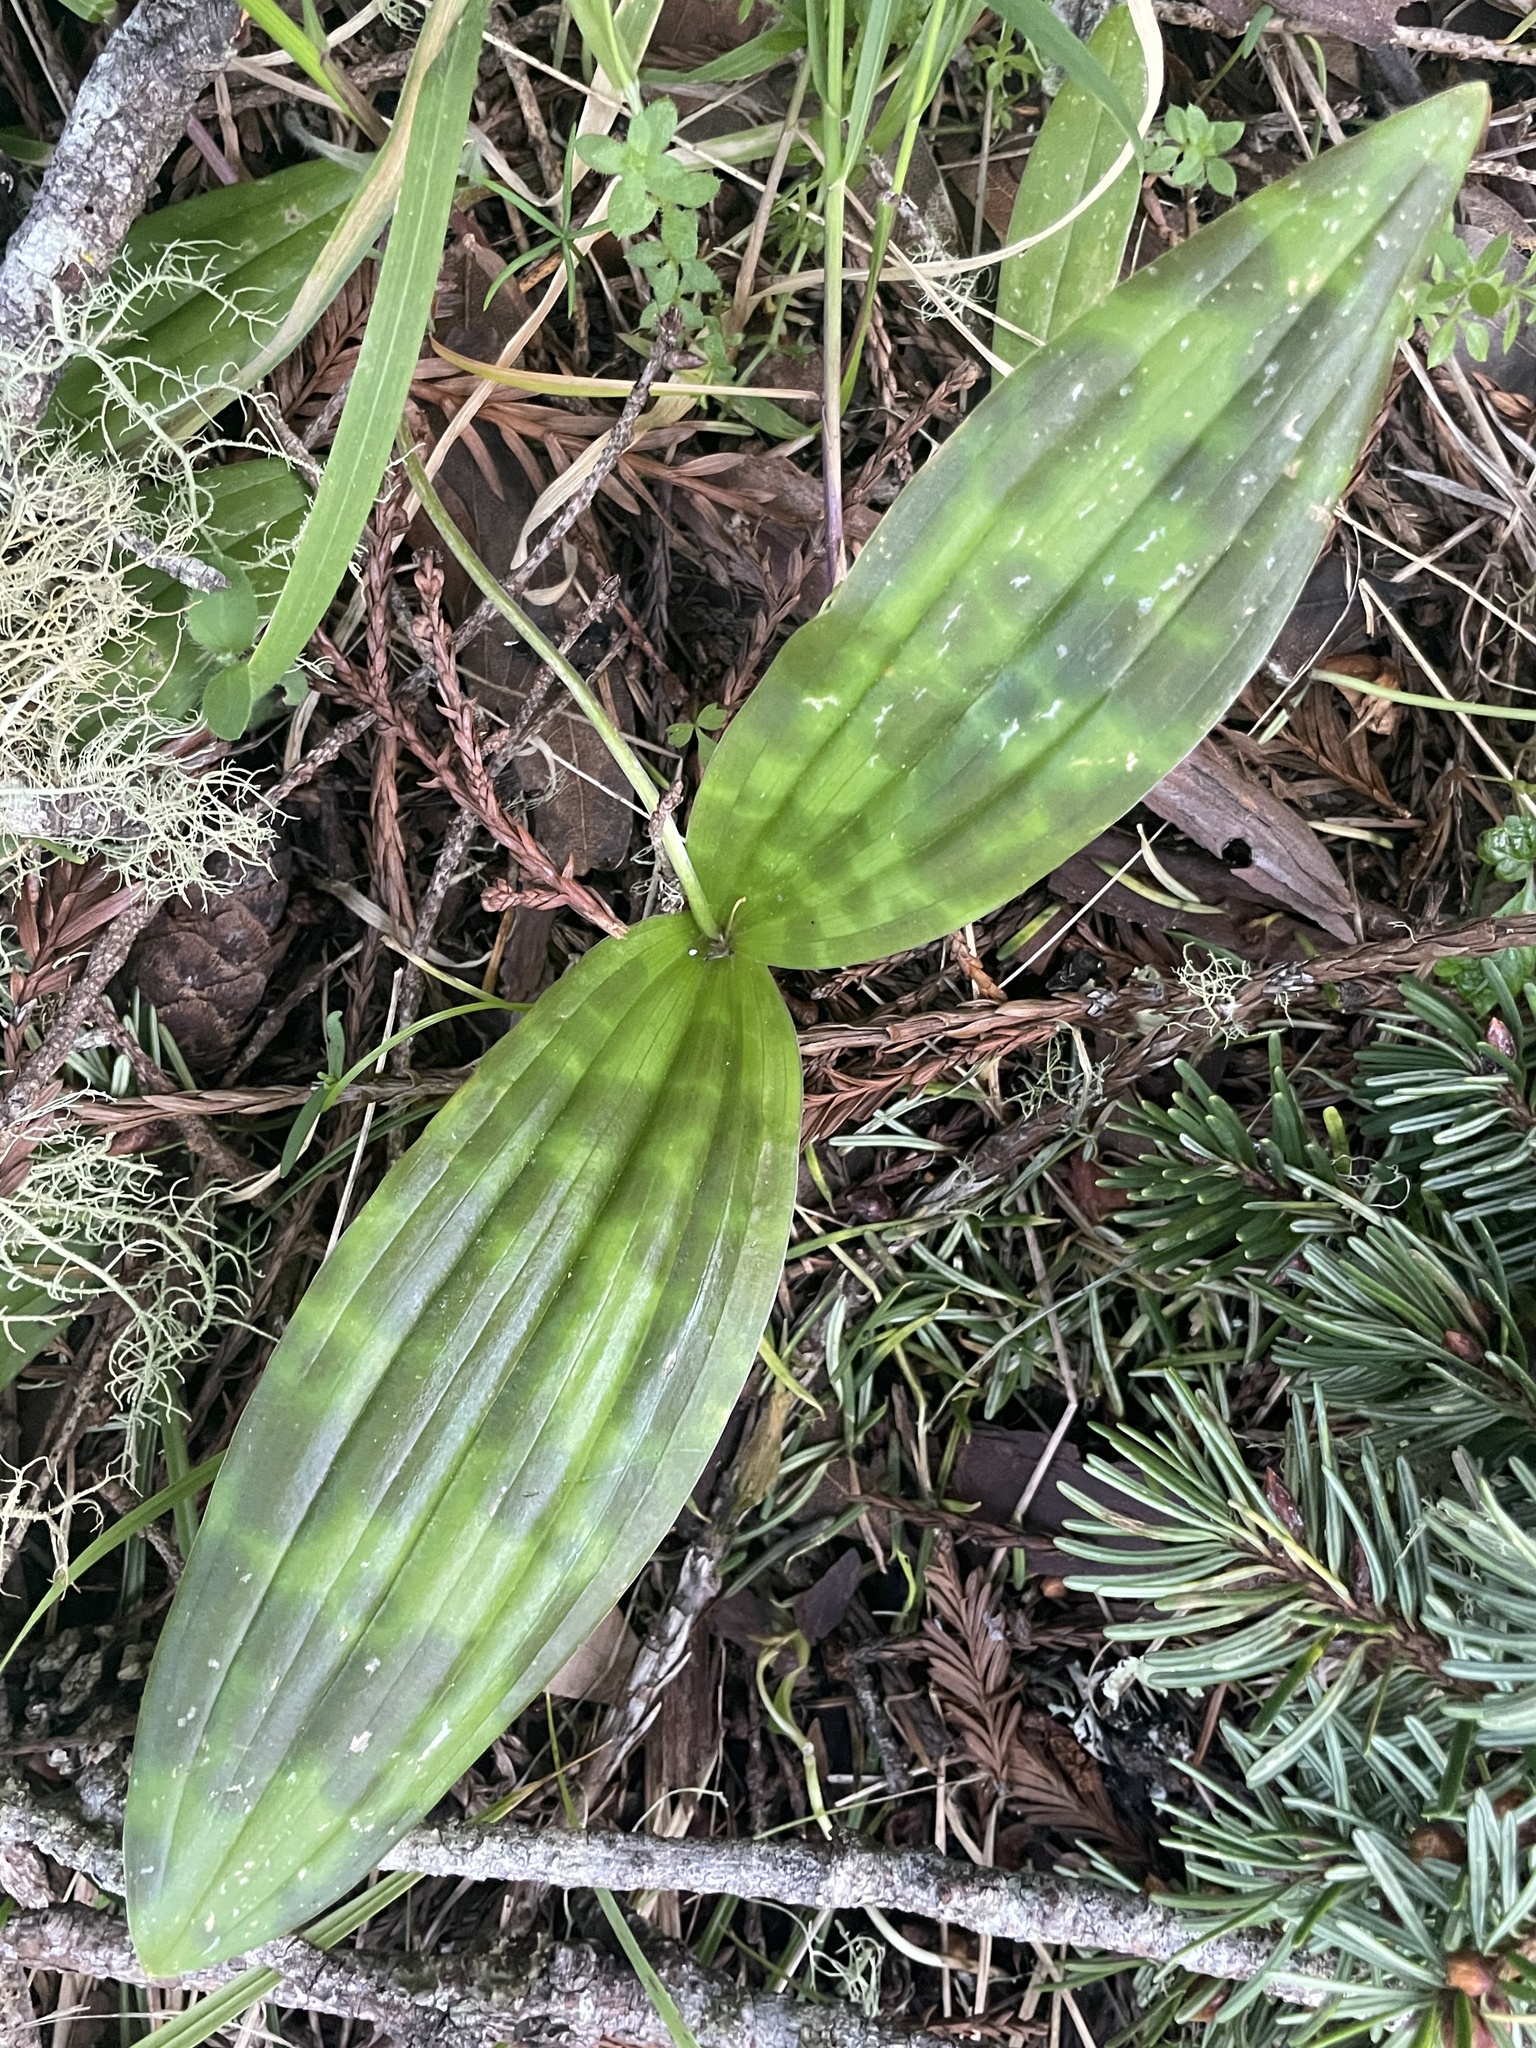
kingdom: Plantae
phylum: Tracheophyta
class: Liliopsida
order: Liliales
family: Liliaceae
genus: Scoliopus
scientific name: Scoliopus bigelovii
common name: Foetid adder's-tongue
